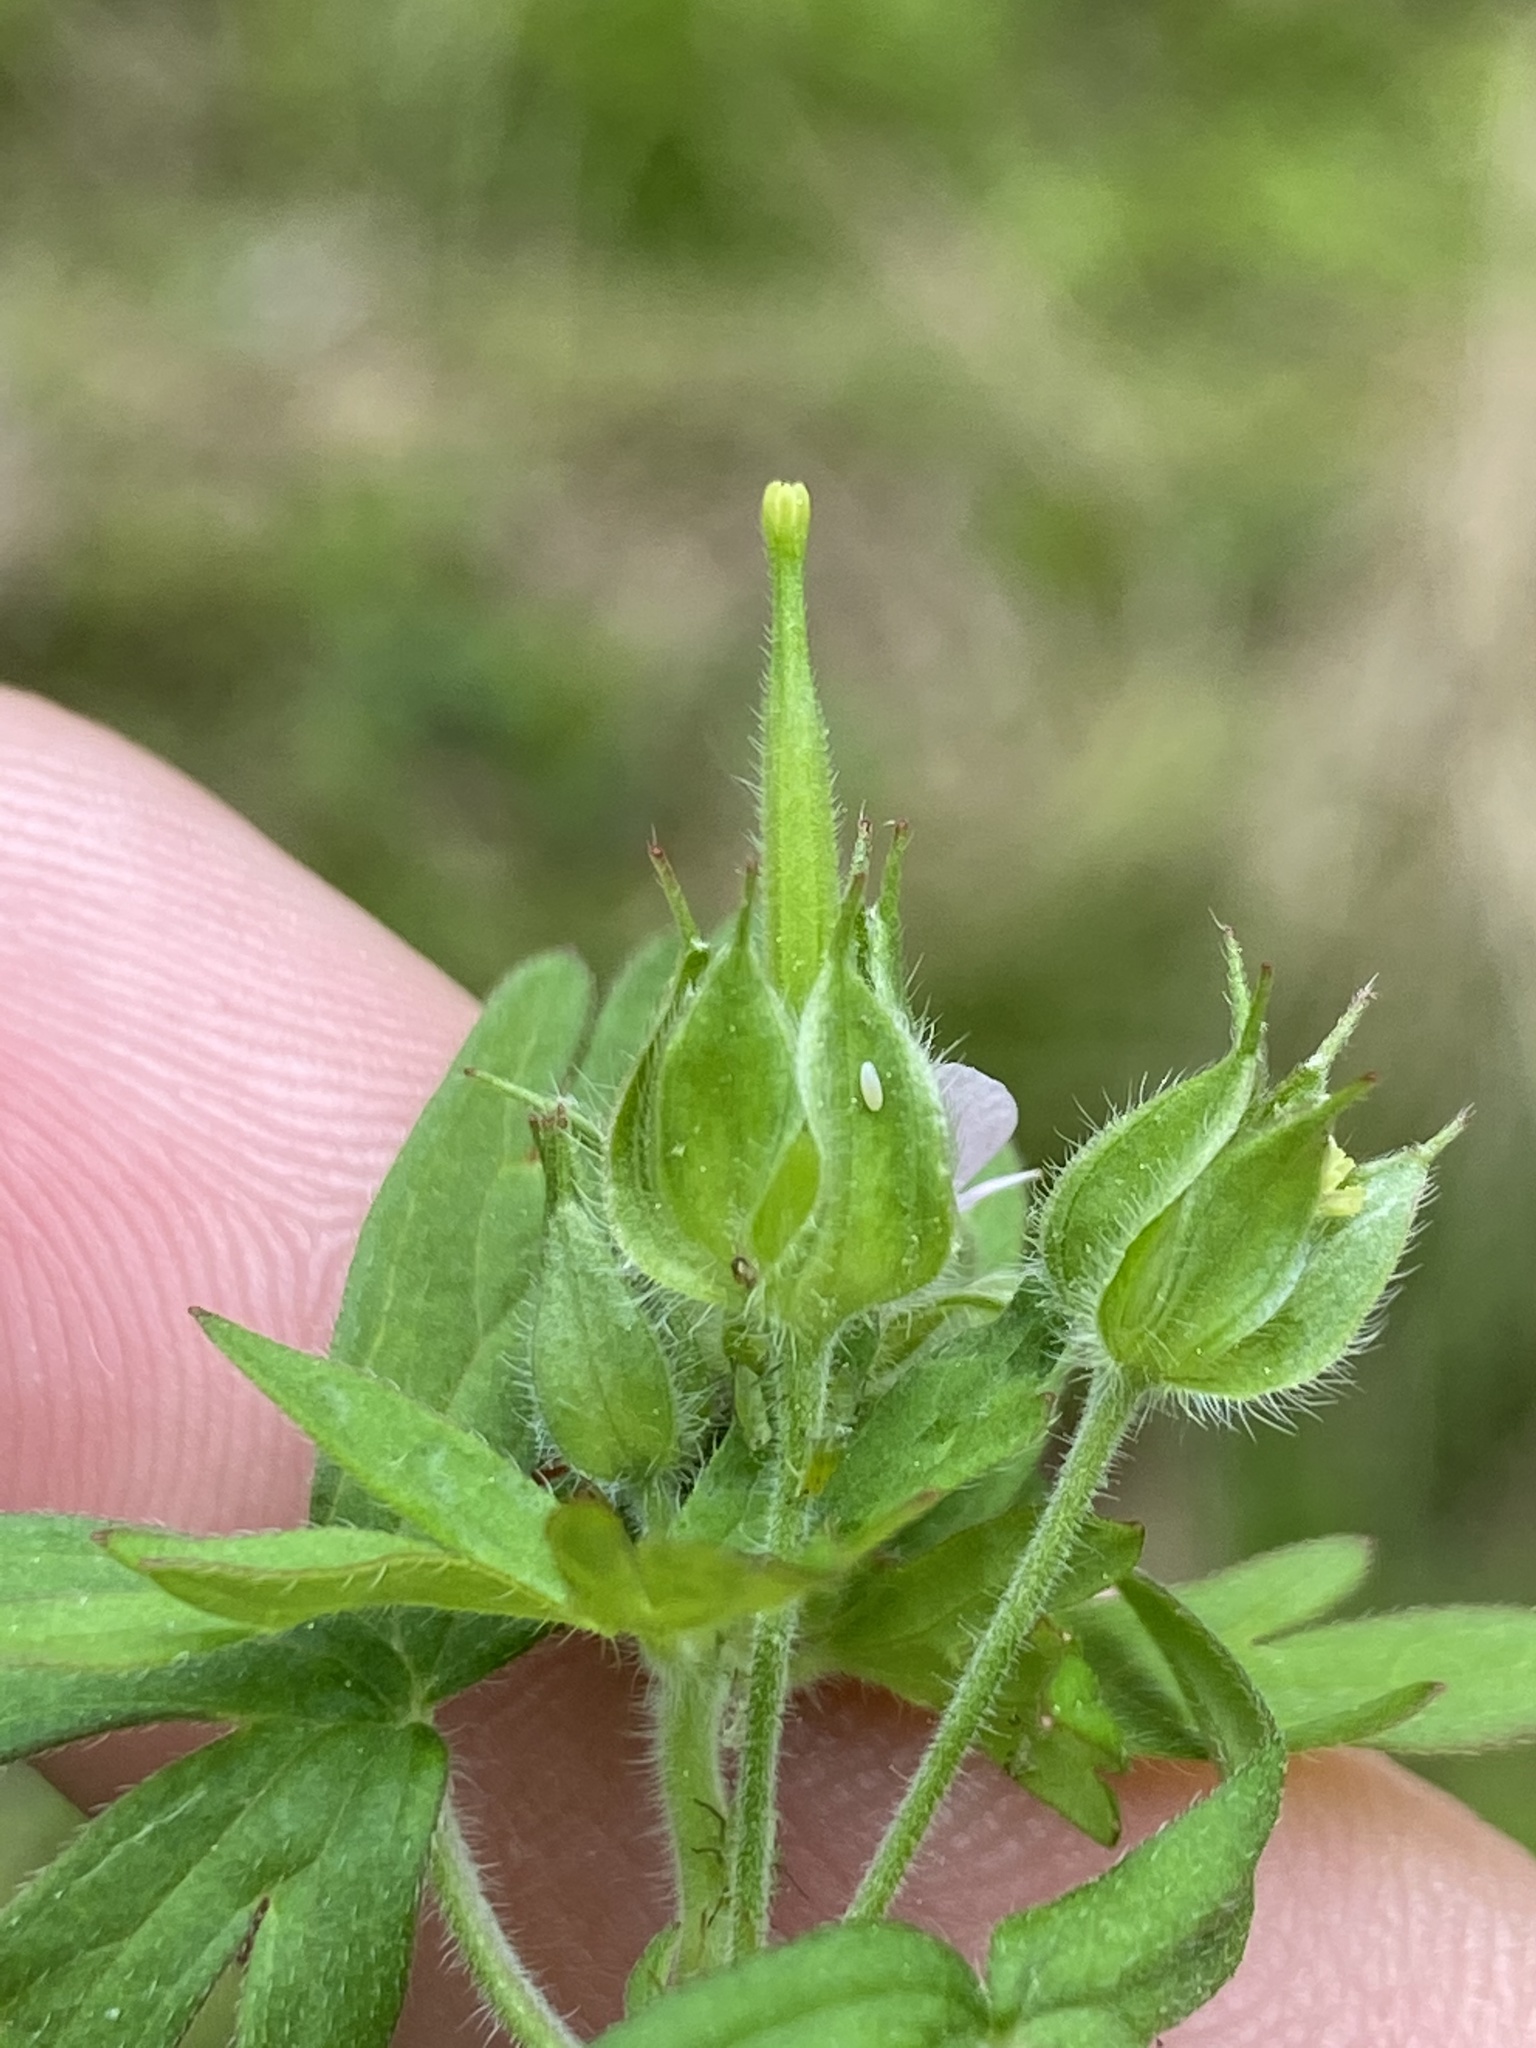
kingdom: Plantae
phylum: Tracheophyta
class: Magnoliopsida
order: Geraniales
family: Geraniaceae
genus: Geranium
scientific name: Geranium carolinianum
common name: Carolina crane's-bill
